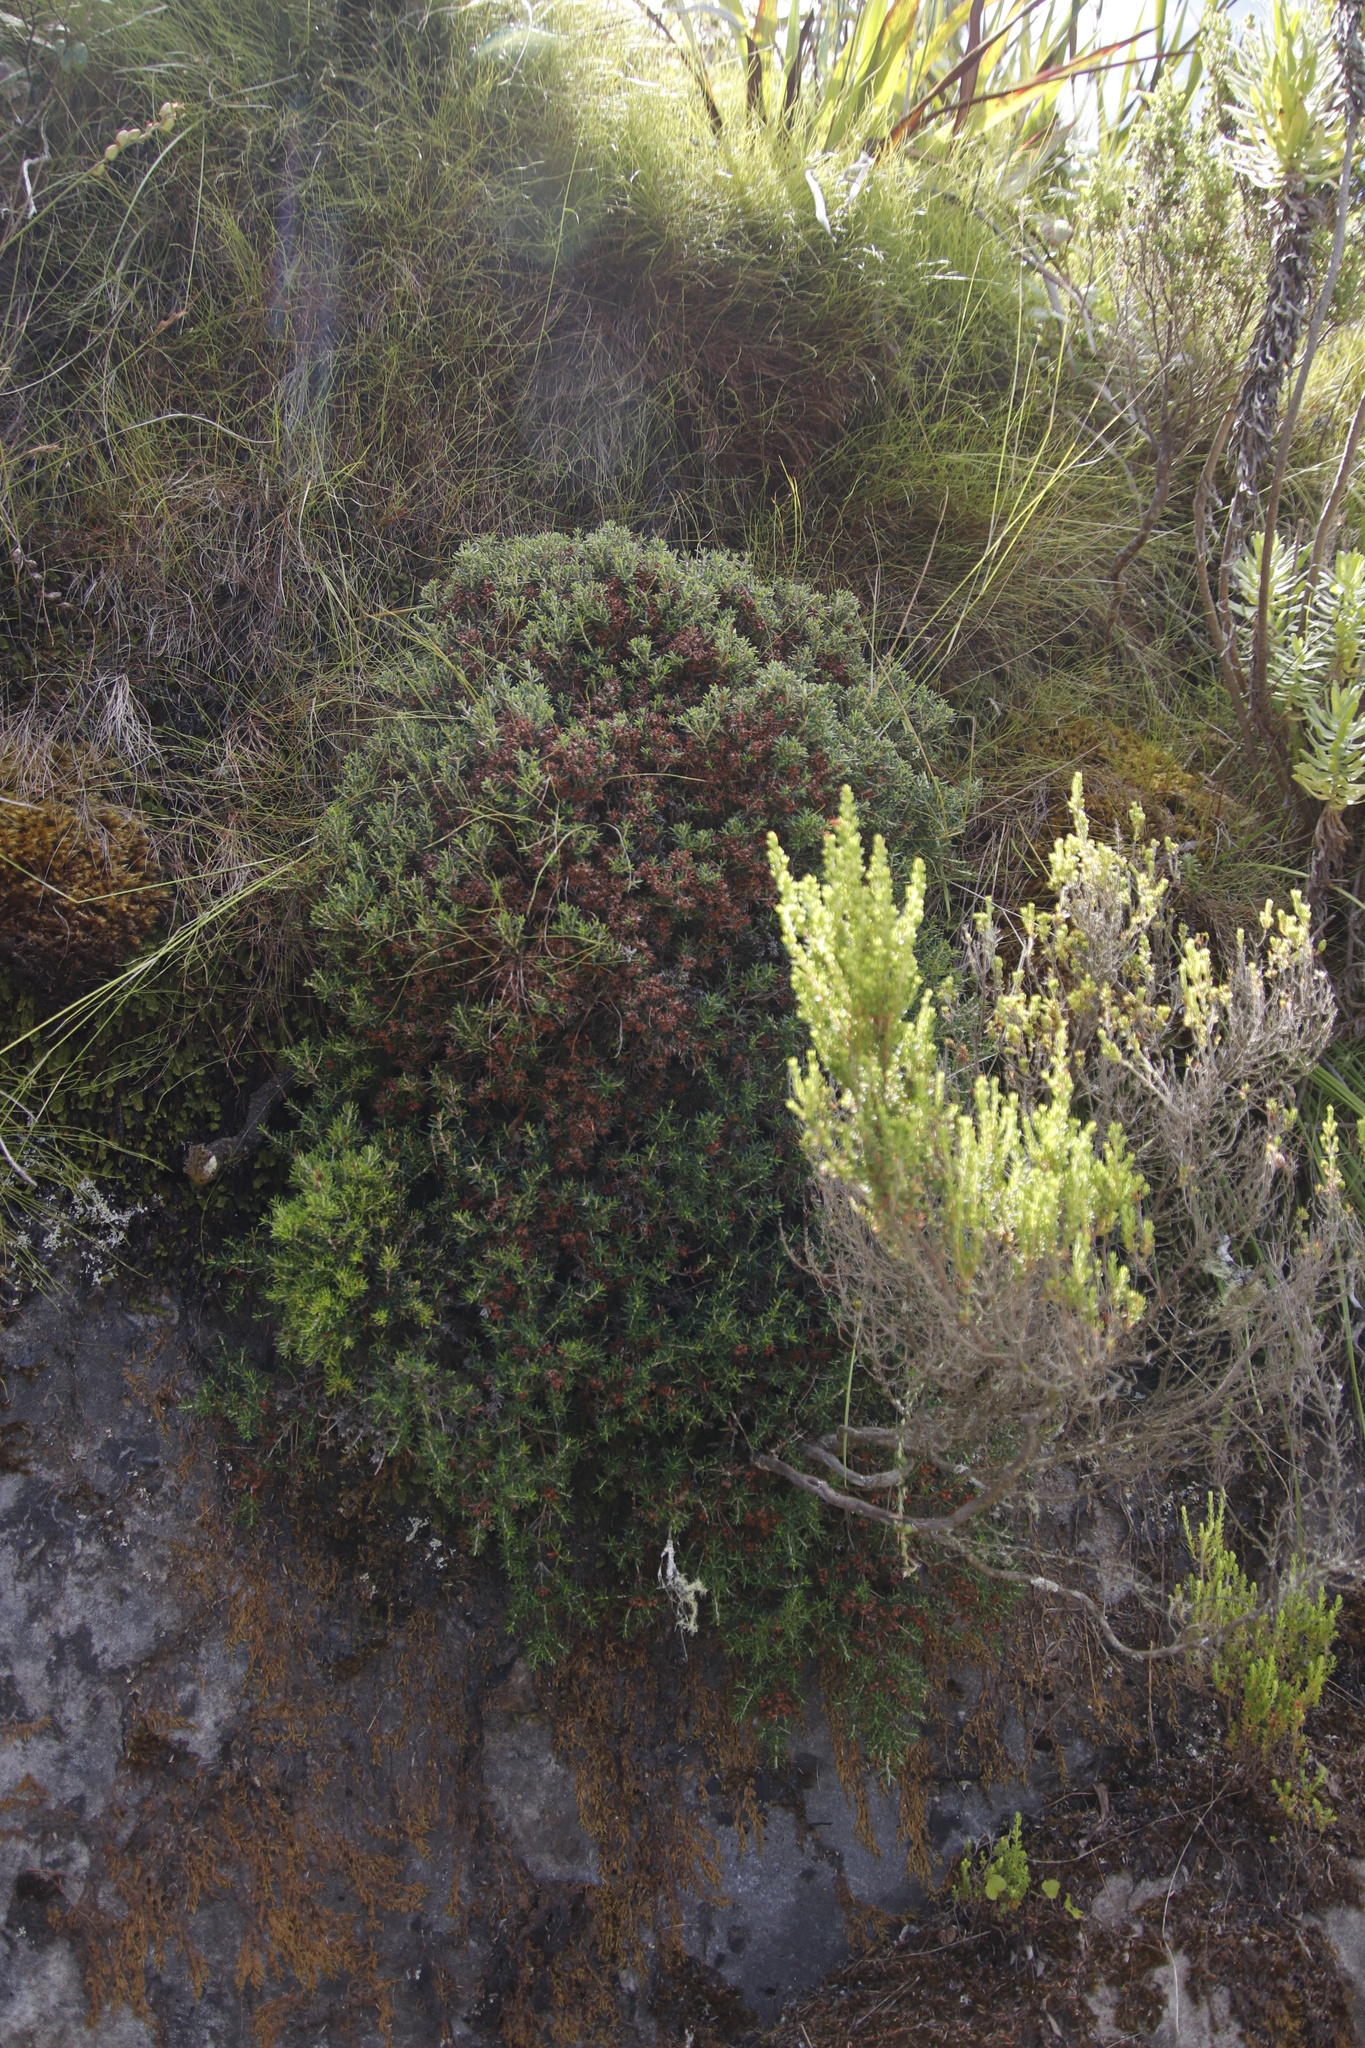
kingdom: Plantae
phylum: Tracheophyta
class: Magnoliopsida
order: Ericales
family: Ericaceae
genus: Erica
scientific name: Erica petiolaris
